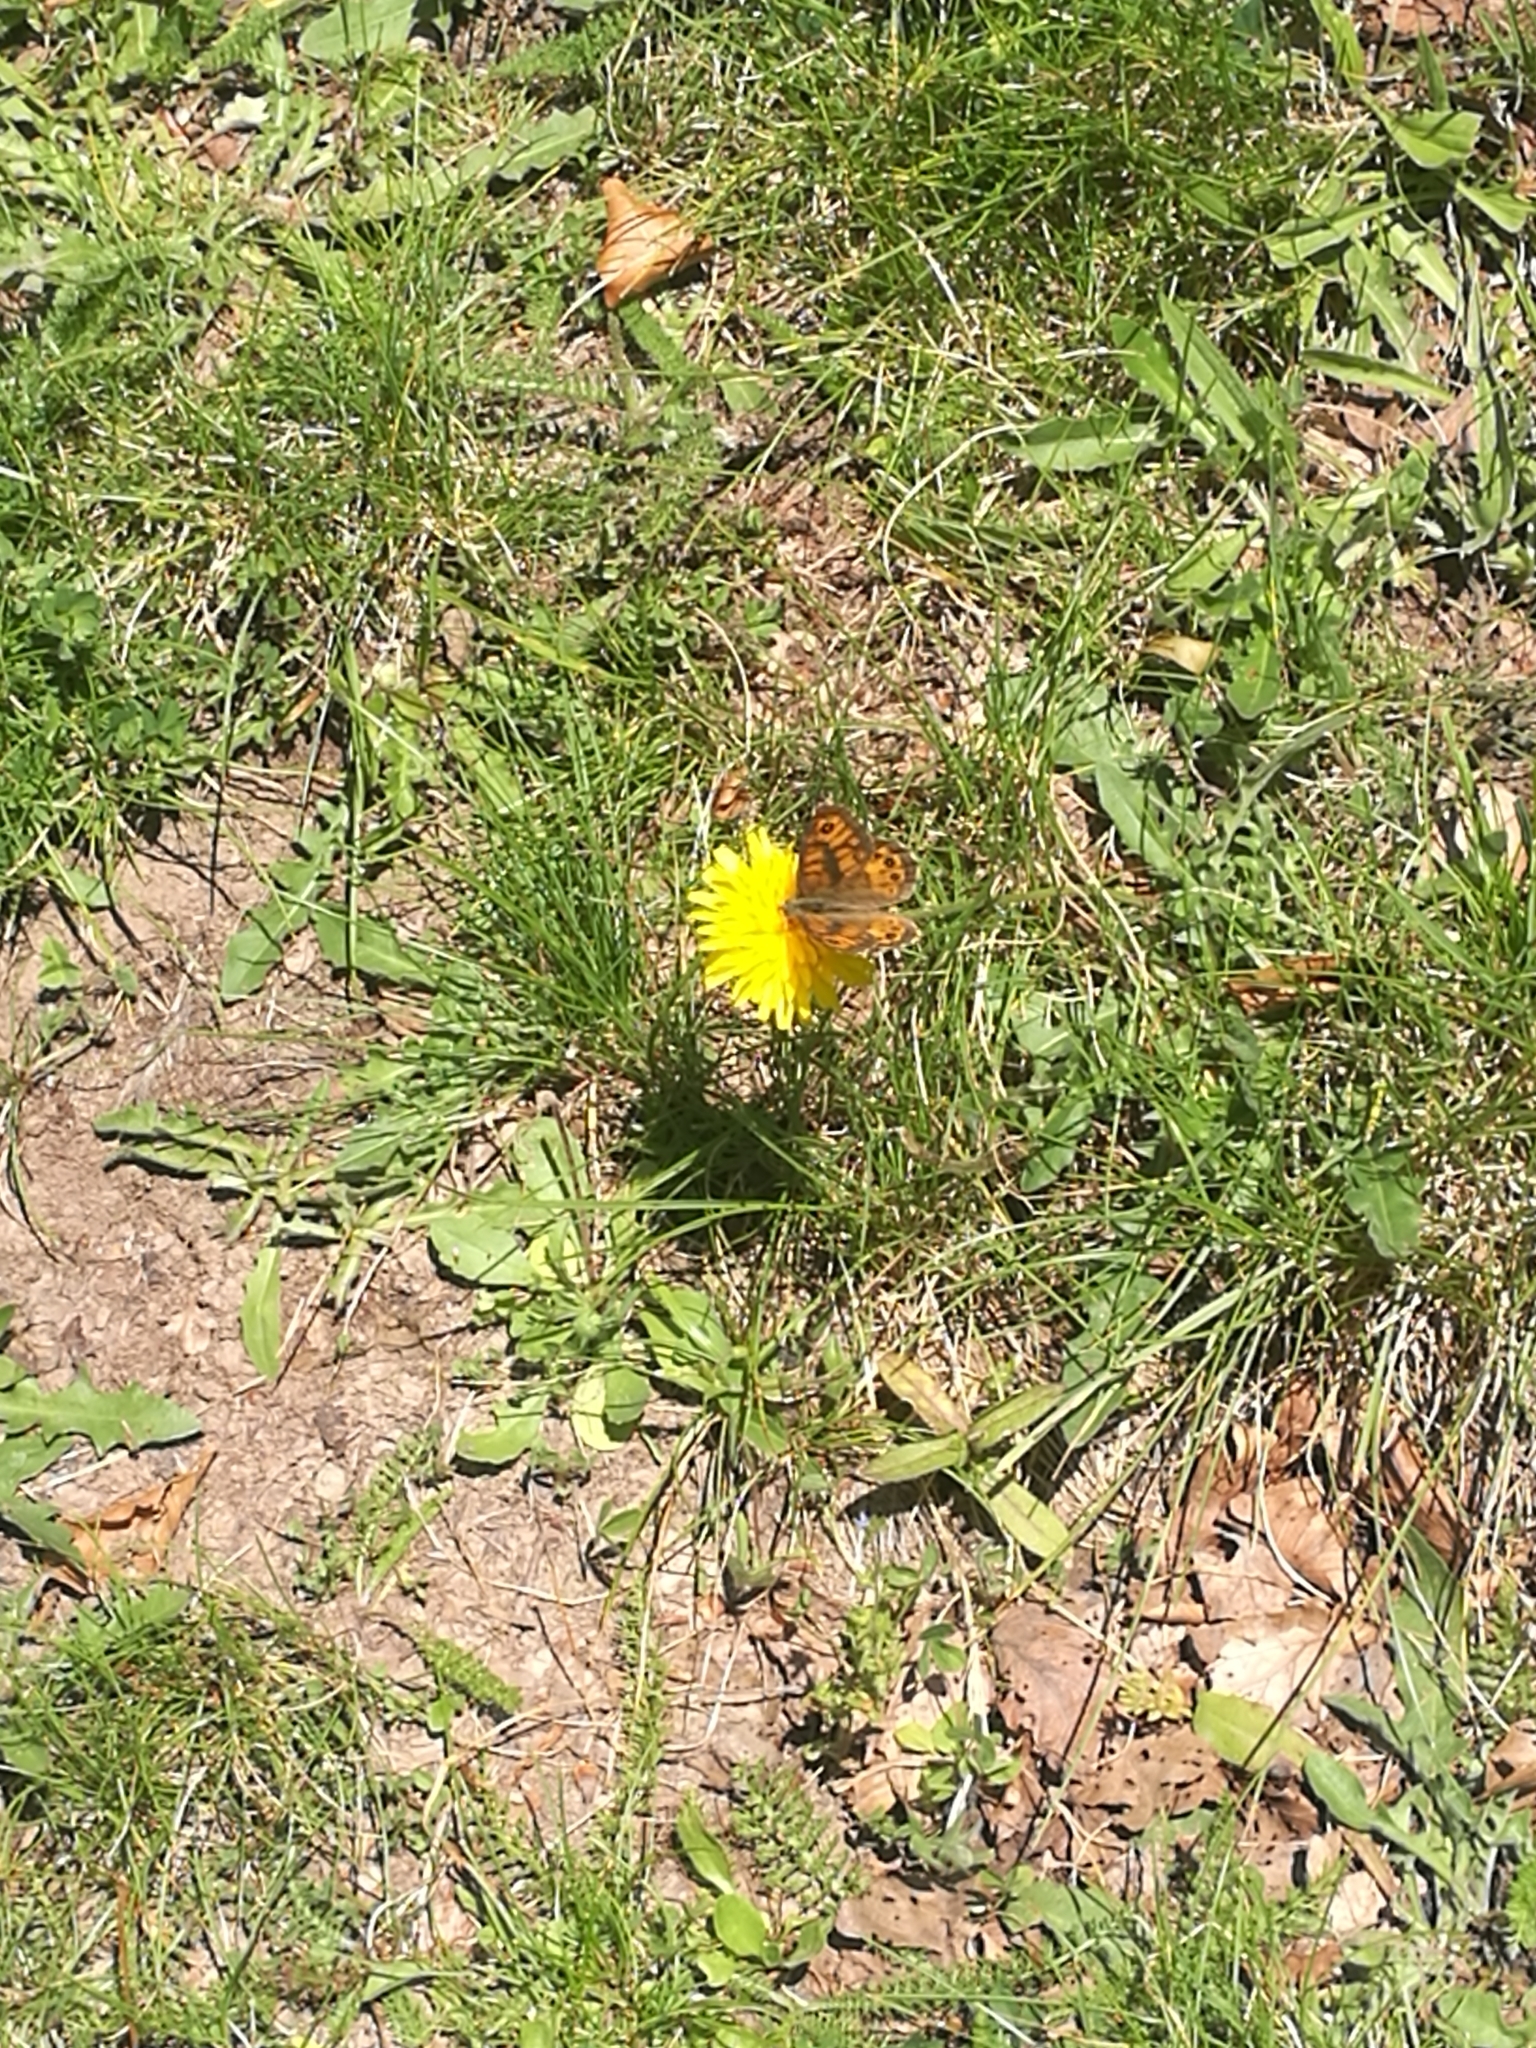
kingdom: Animalia
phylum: Arthropoda
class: Insecta
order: Lepidoptera
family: Nymphalidae
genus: Pararge
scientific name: Pararge Lasiommata megera
